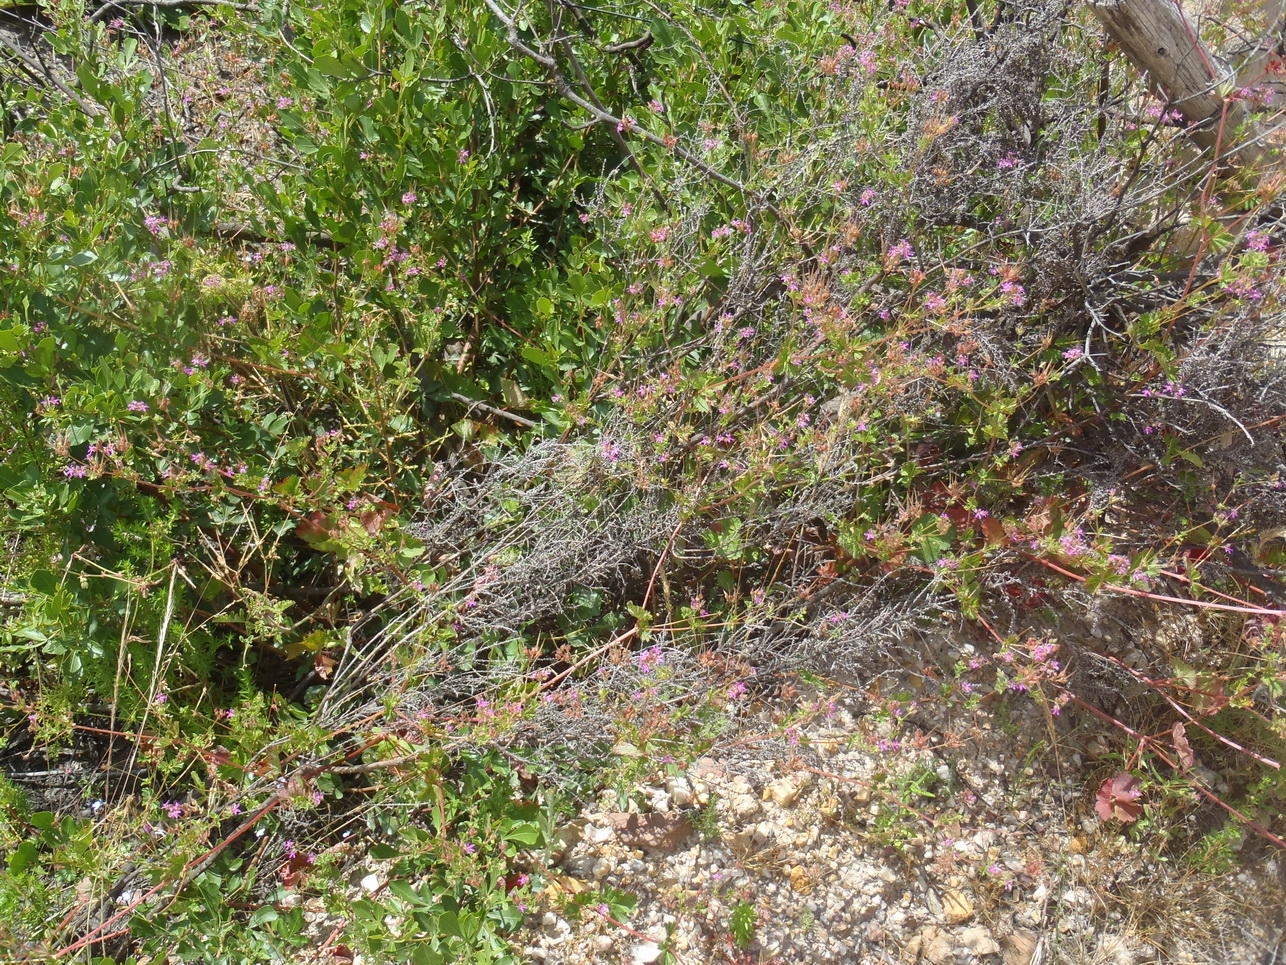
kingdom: Plantae
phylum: Tracheophyta
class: Magnoliopsida
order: Geraniales
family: Geraniaceae
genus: Pelargonium
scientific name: Pelargonium grossularioides
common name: Gooseberry geranium
